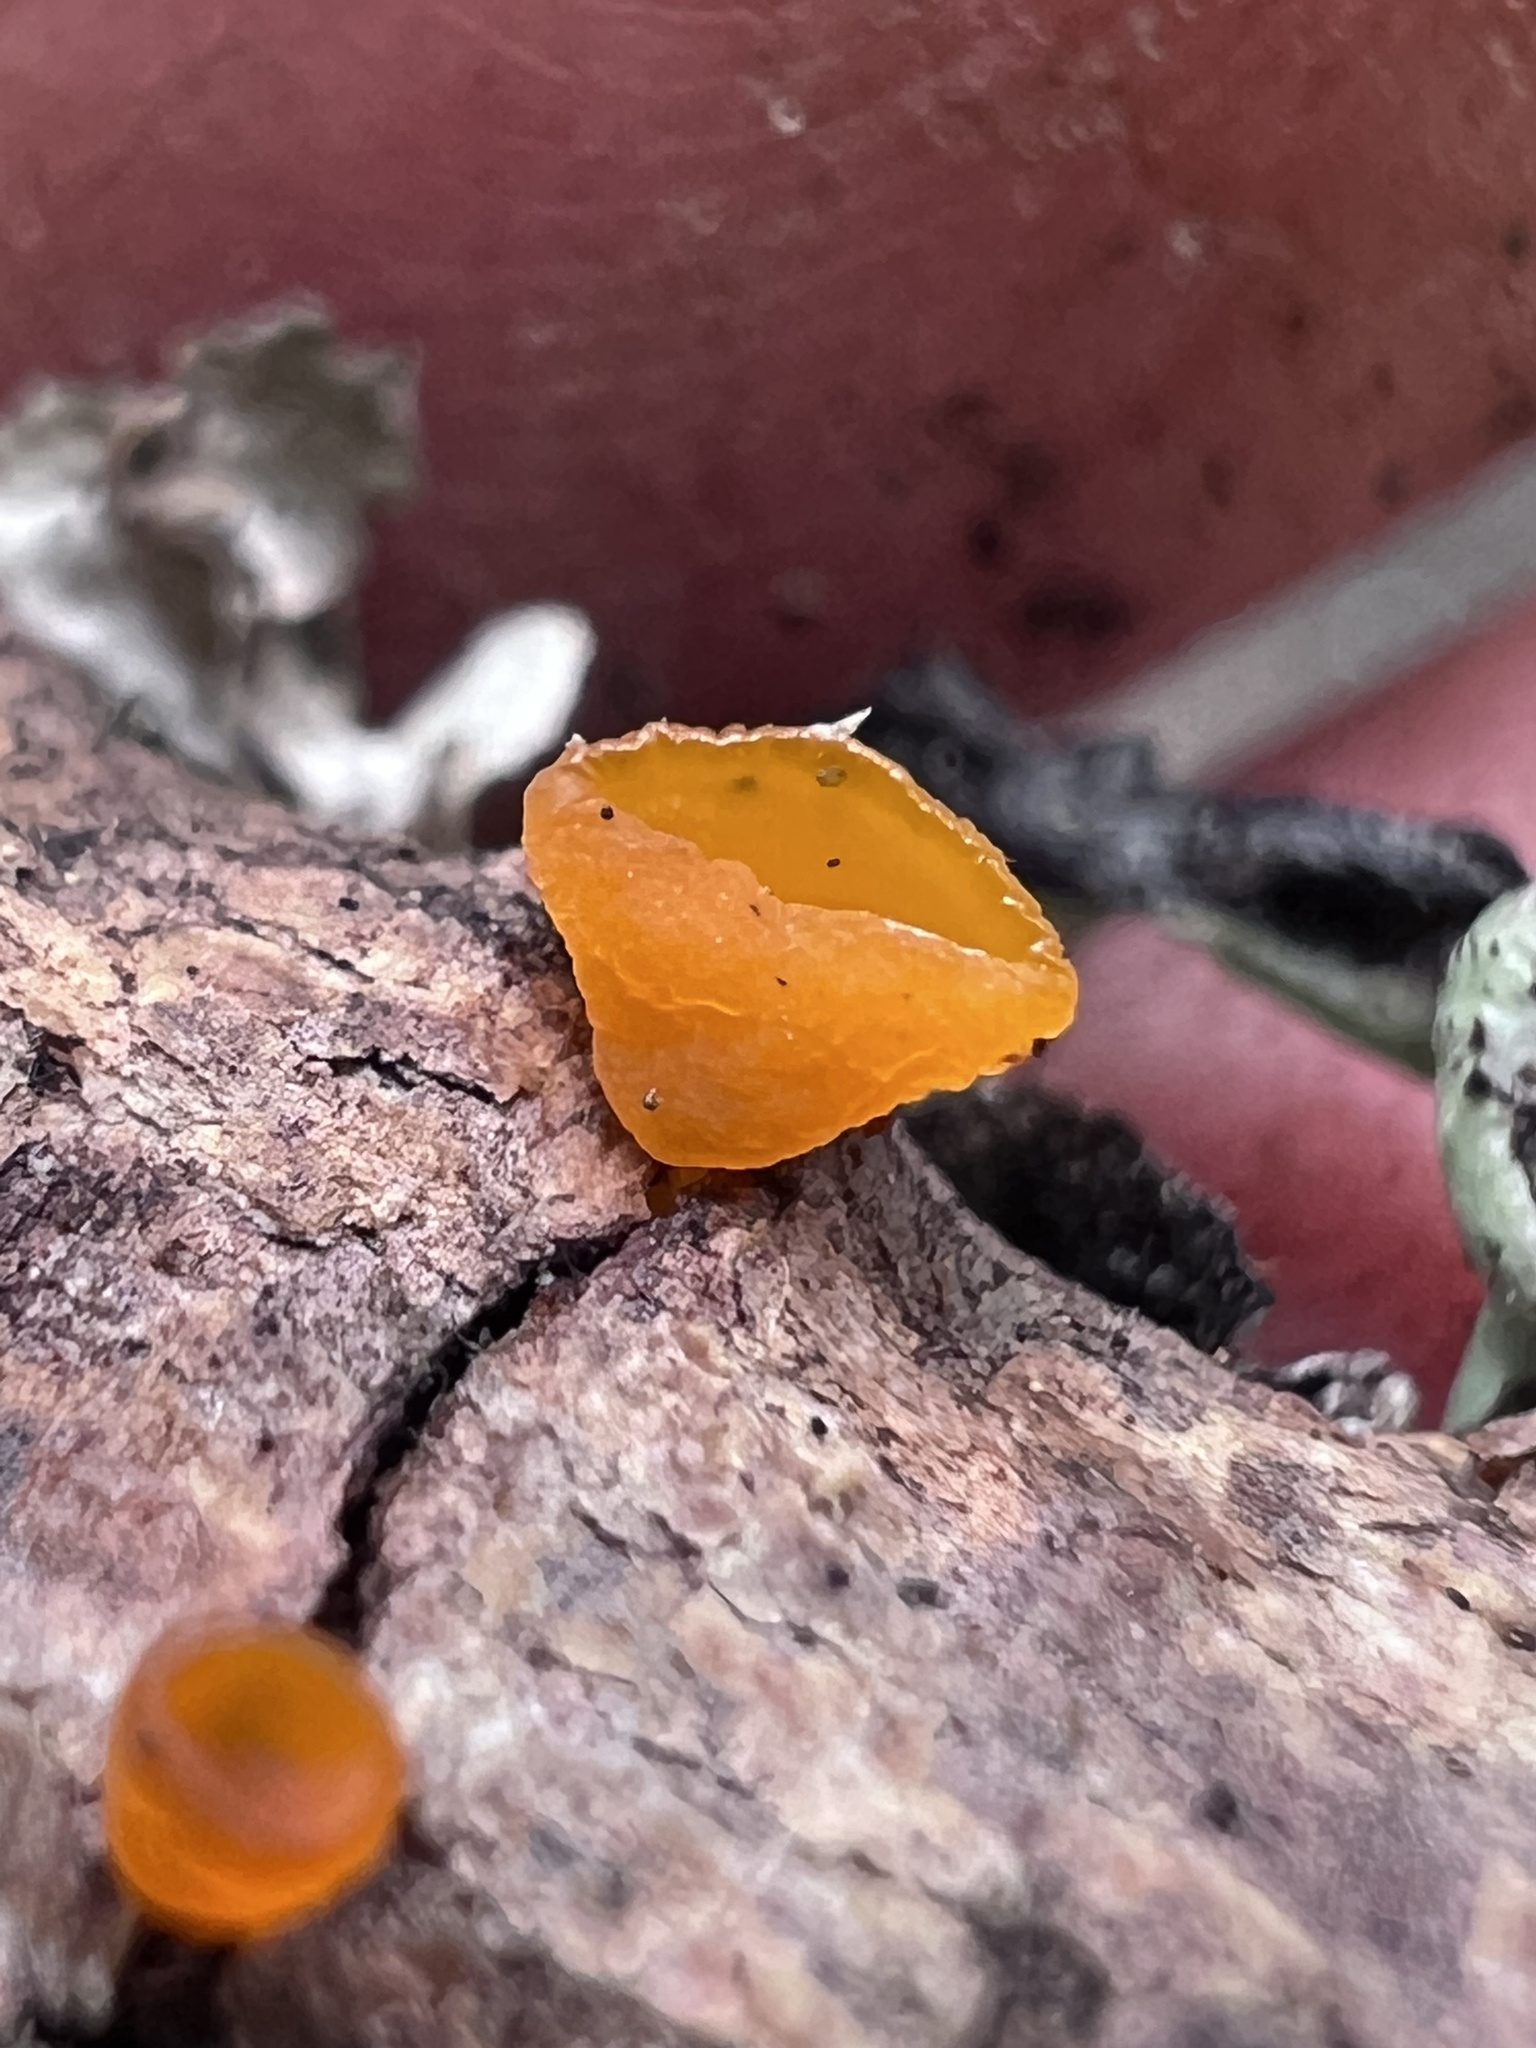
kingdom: Fungi
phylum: Basidiomycota
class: Dacrymycetes
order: Dacrymycetales
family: Dacrymycetaceae
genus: Guepiniopsis
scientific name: Guepiniopsis alpina
